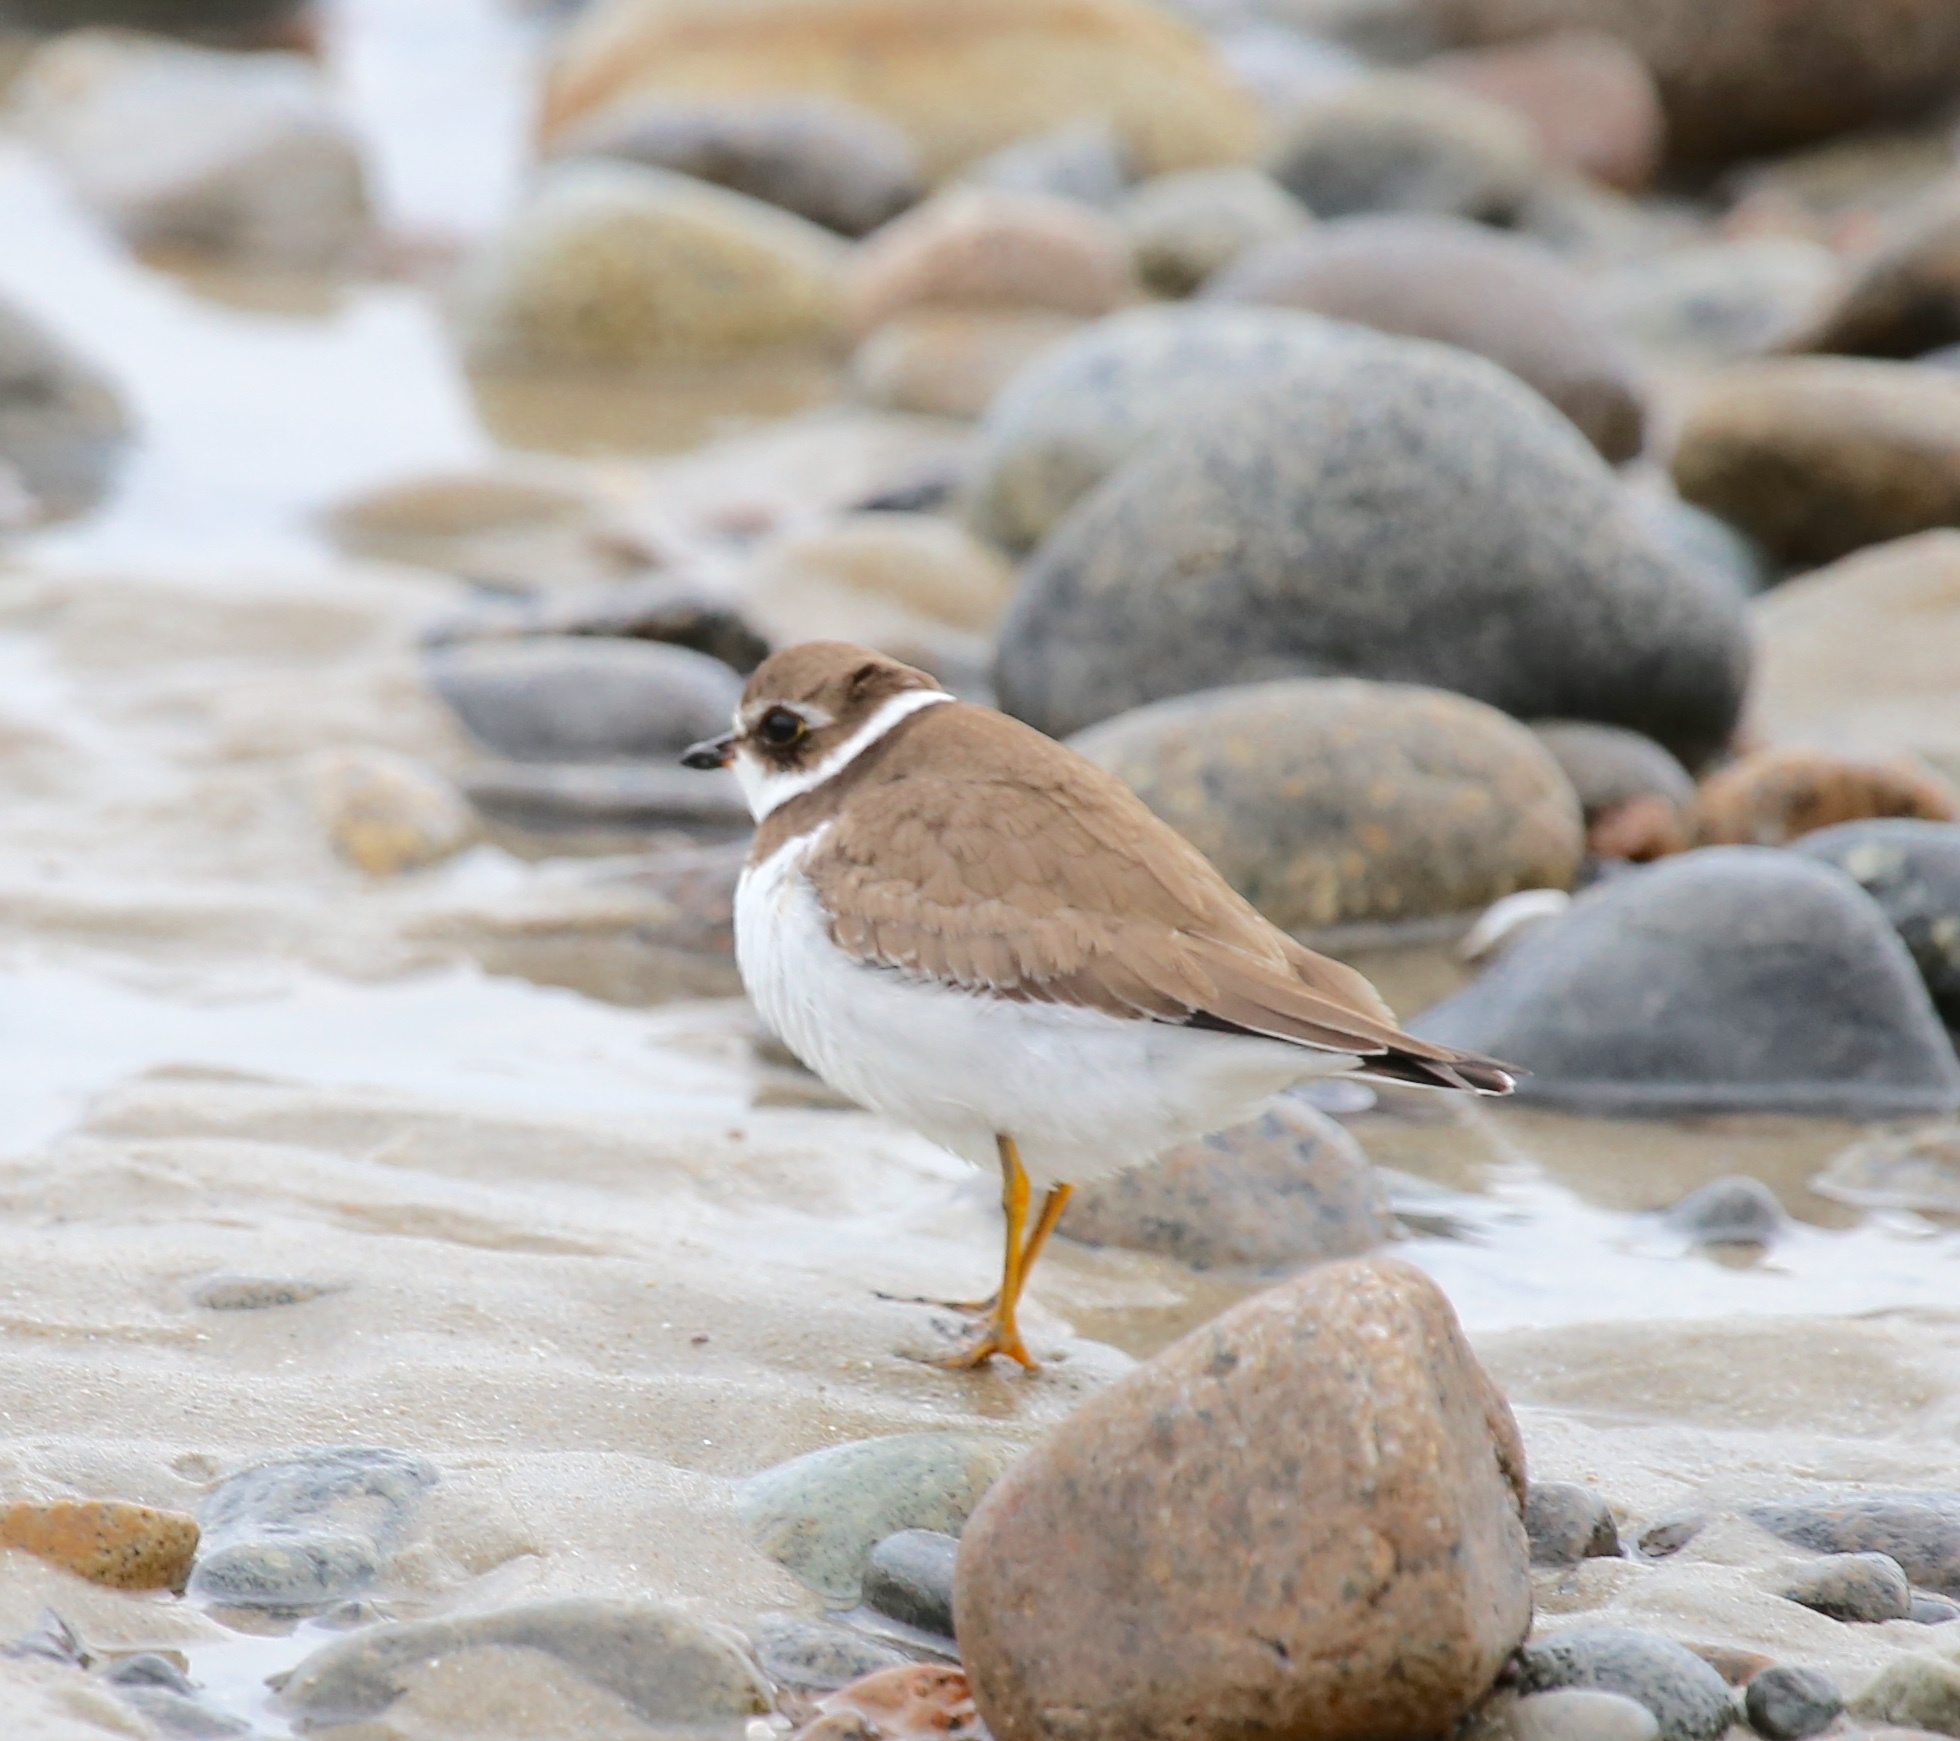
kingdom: Animalia
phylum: Chordata
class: Aves
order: Charadriiformes
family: Charadriidae
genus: Charadrius
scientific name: Charadrius semipalmatus
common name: Semipalmated plover
